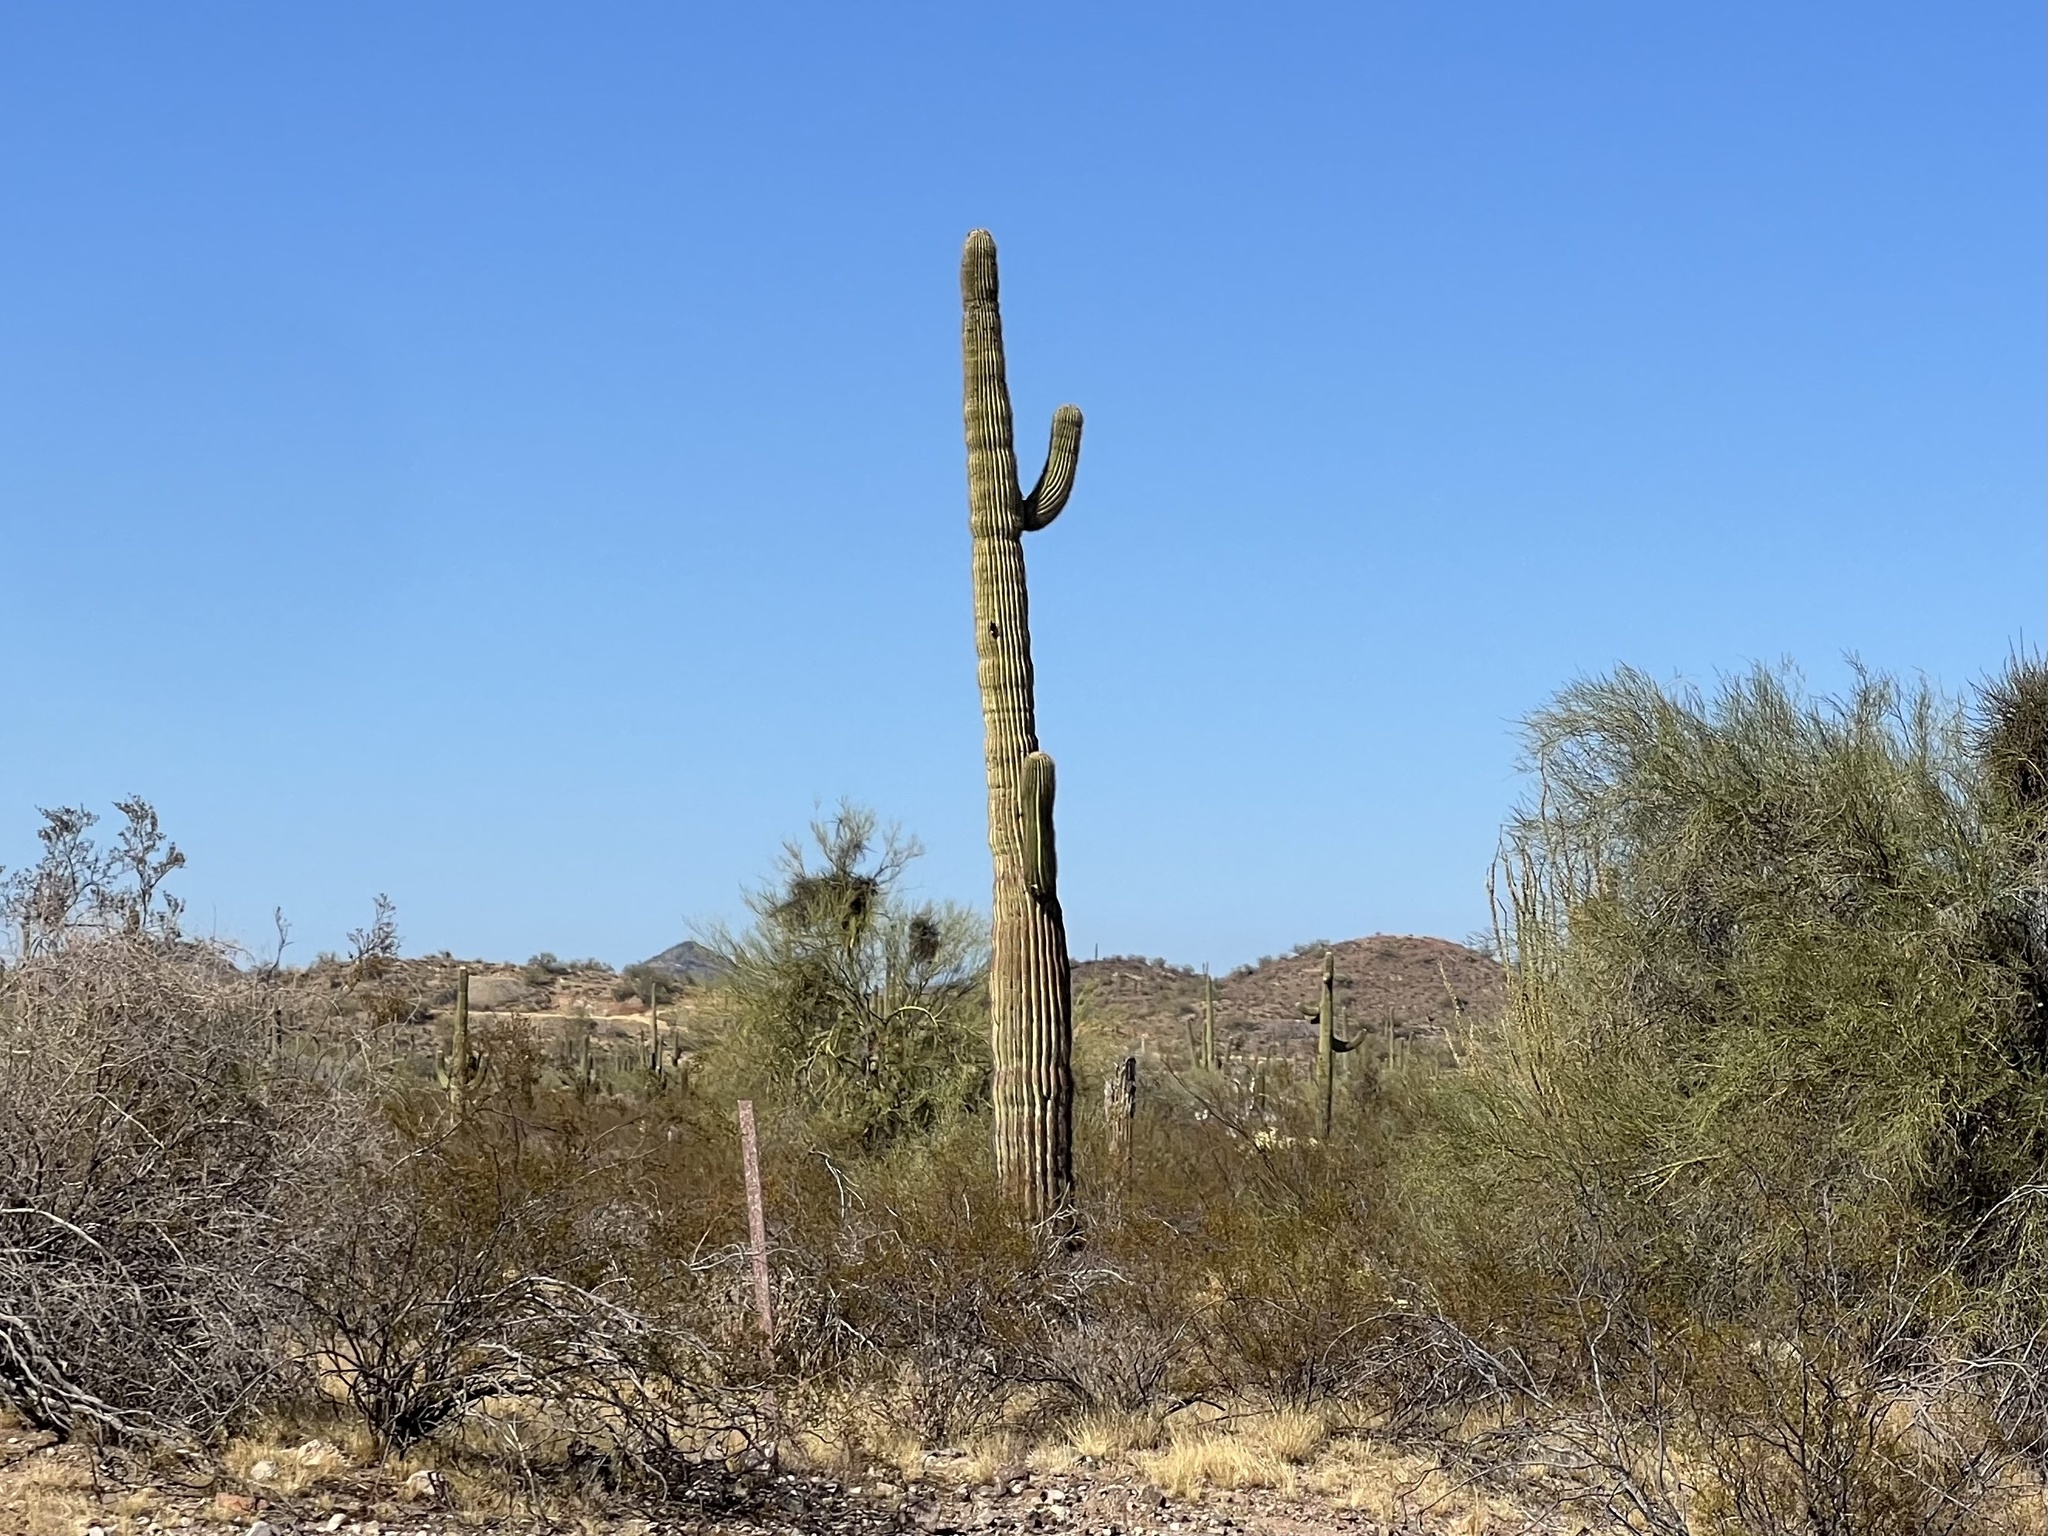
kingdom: Plantae
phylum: Tracheophyta
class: Magnoliopsida
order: Caryophyllales
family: Cactaceae
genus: Carnegiea
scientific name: Carnegiea gigantea
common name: Saguaro
